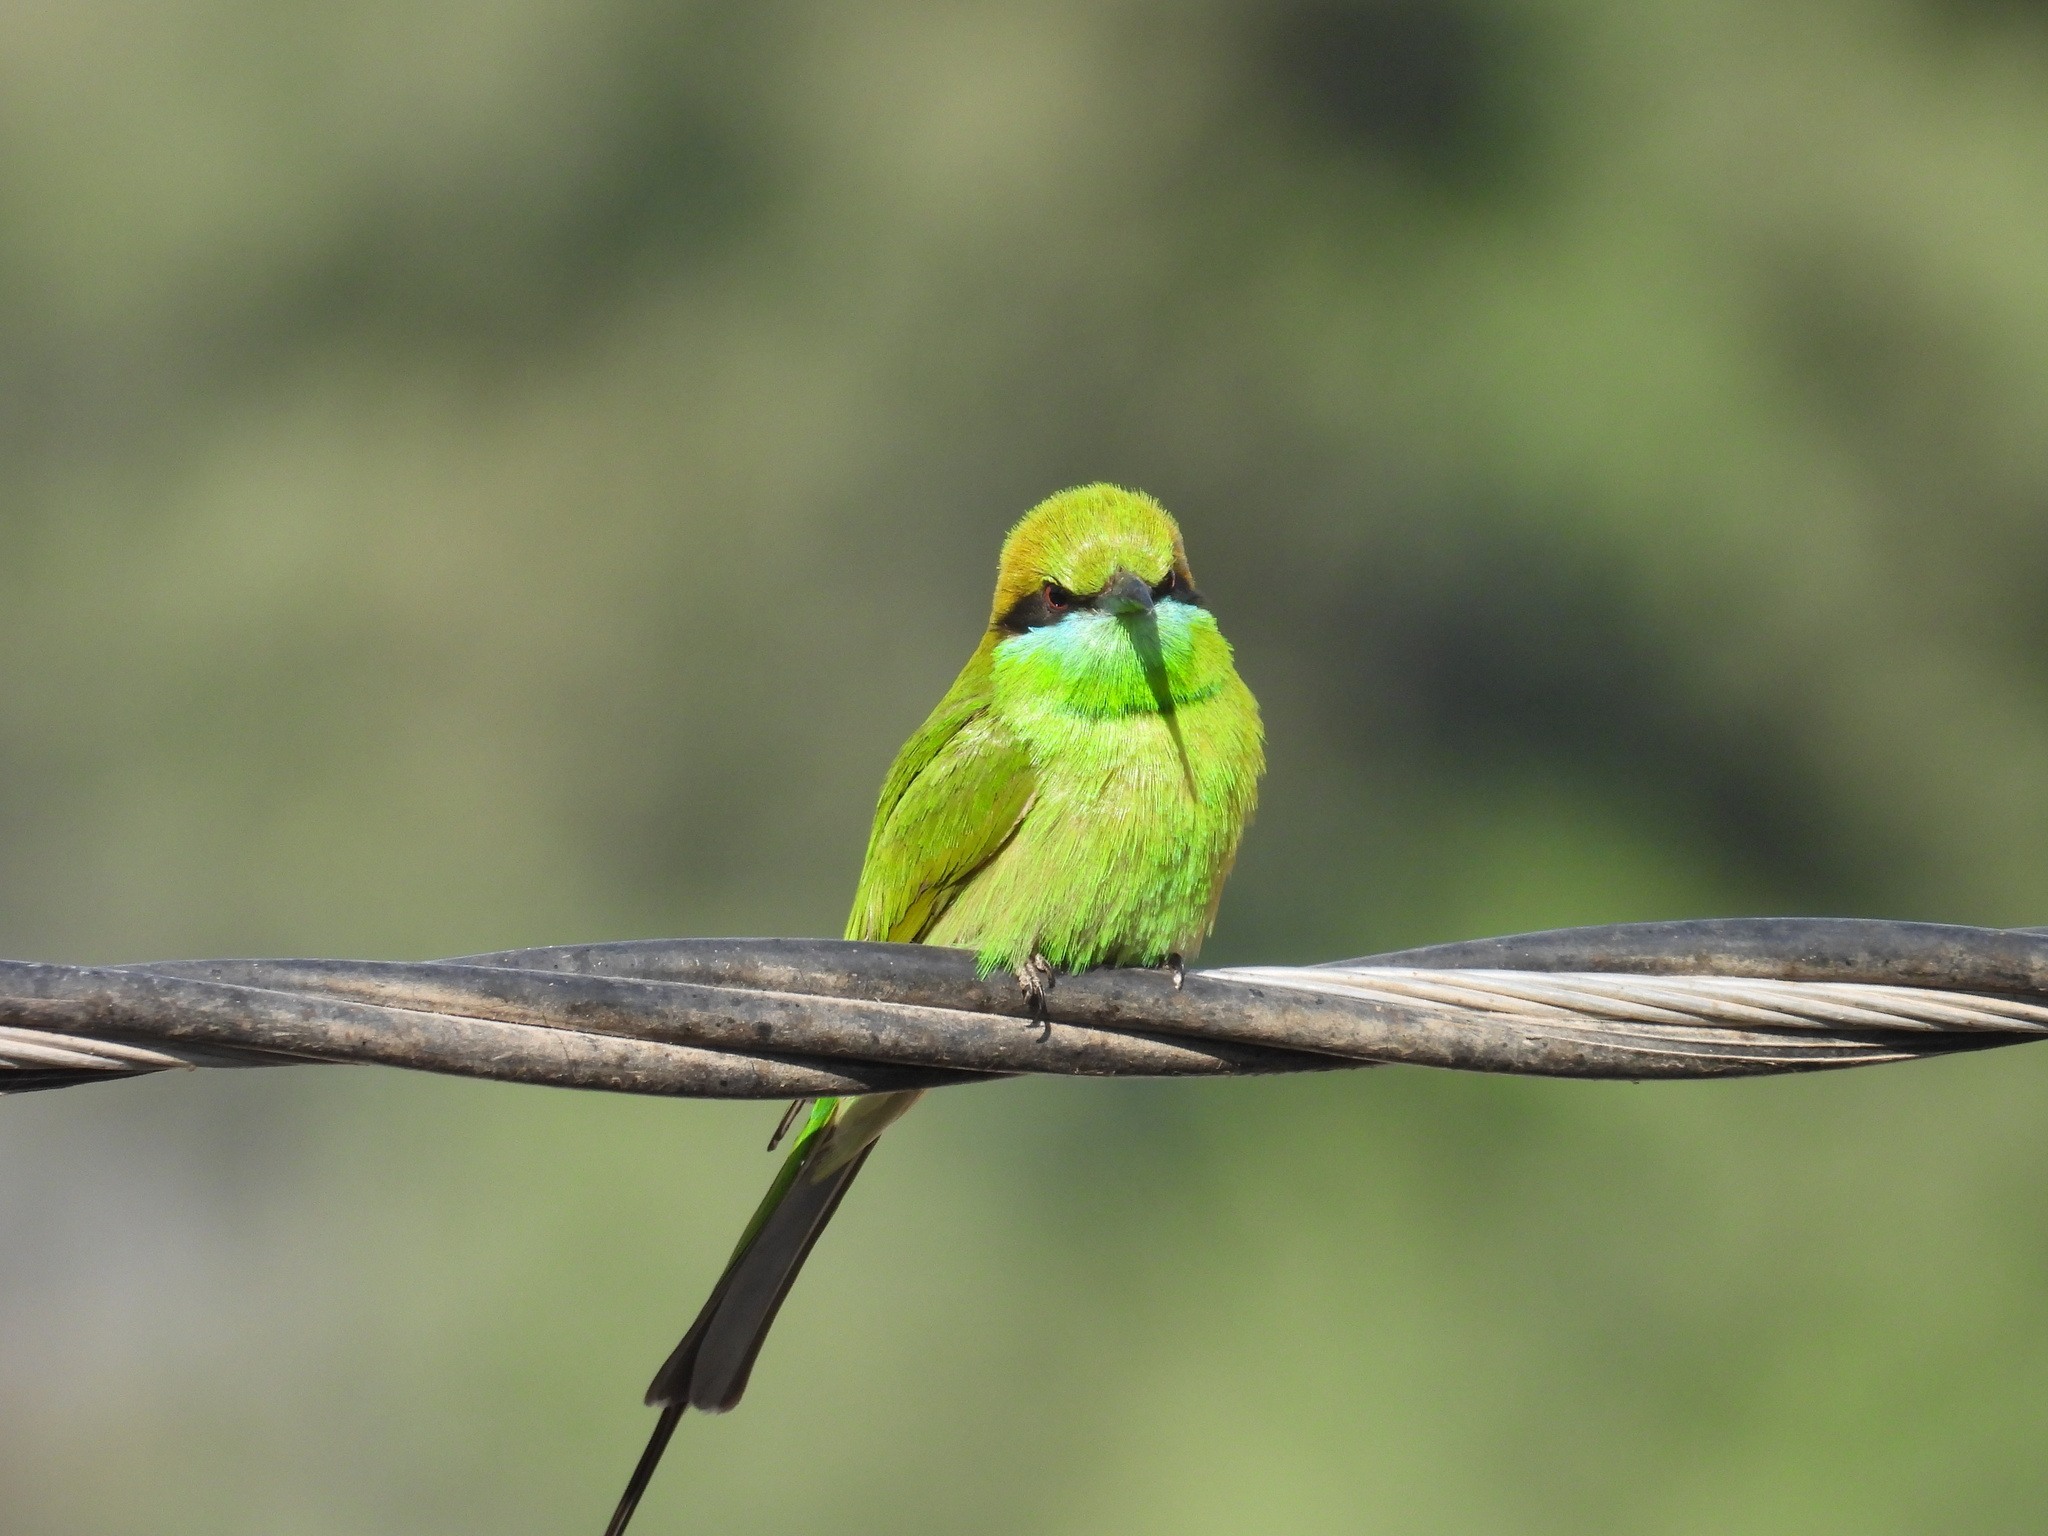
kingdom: Animalia
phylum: Chordata
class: Aves
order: Coraciiformes
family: Meropidae
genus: Merops
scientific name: Merops orientalis
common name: Green bee-eater
